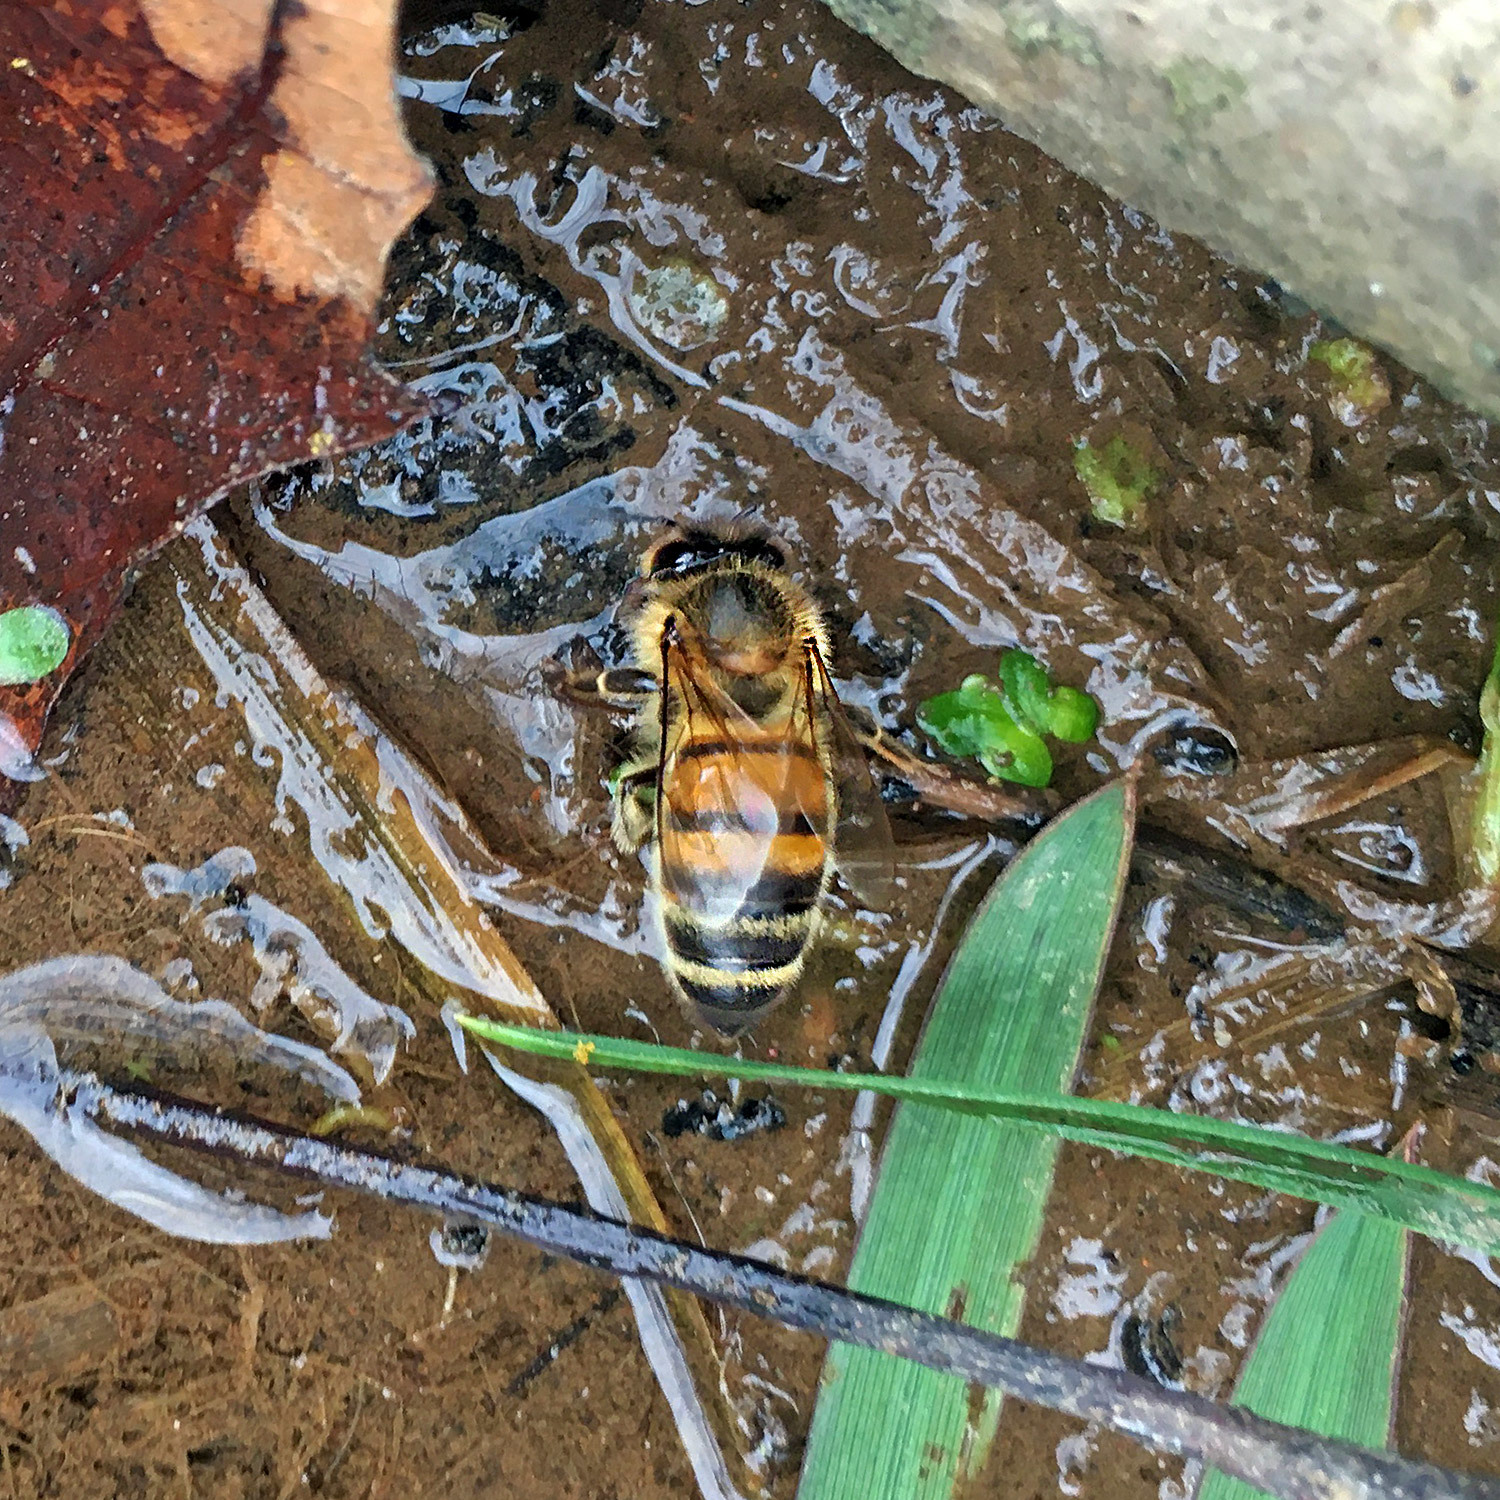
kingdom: Animalia
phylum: Arthropoda
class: Insecta
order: Hymenoptera
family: Apidae
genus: Apis
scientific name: Apis mellifera
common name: Honey bee
